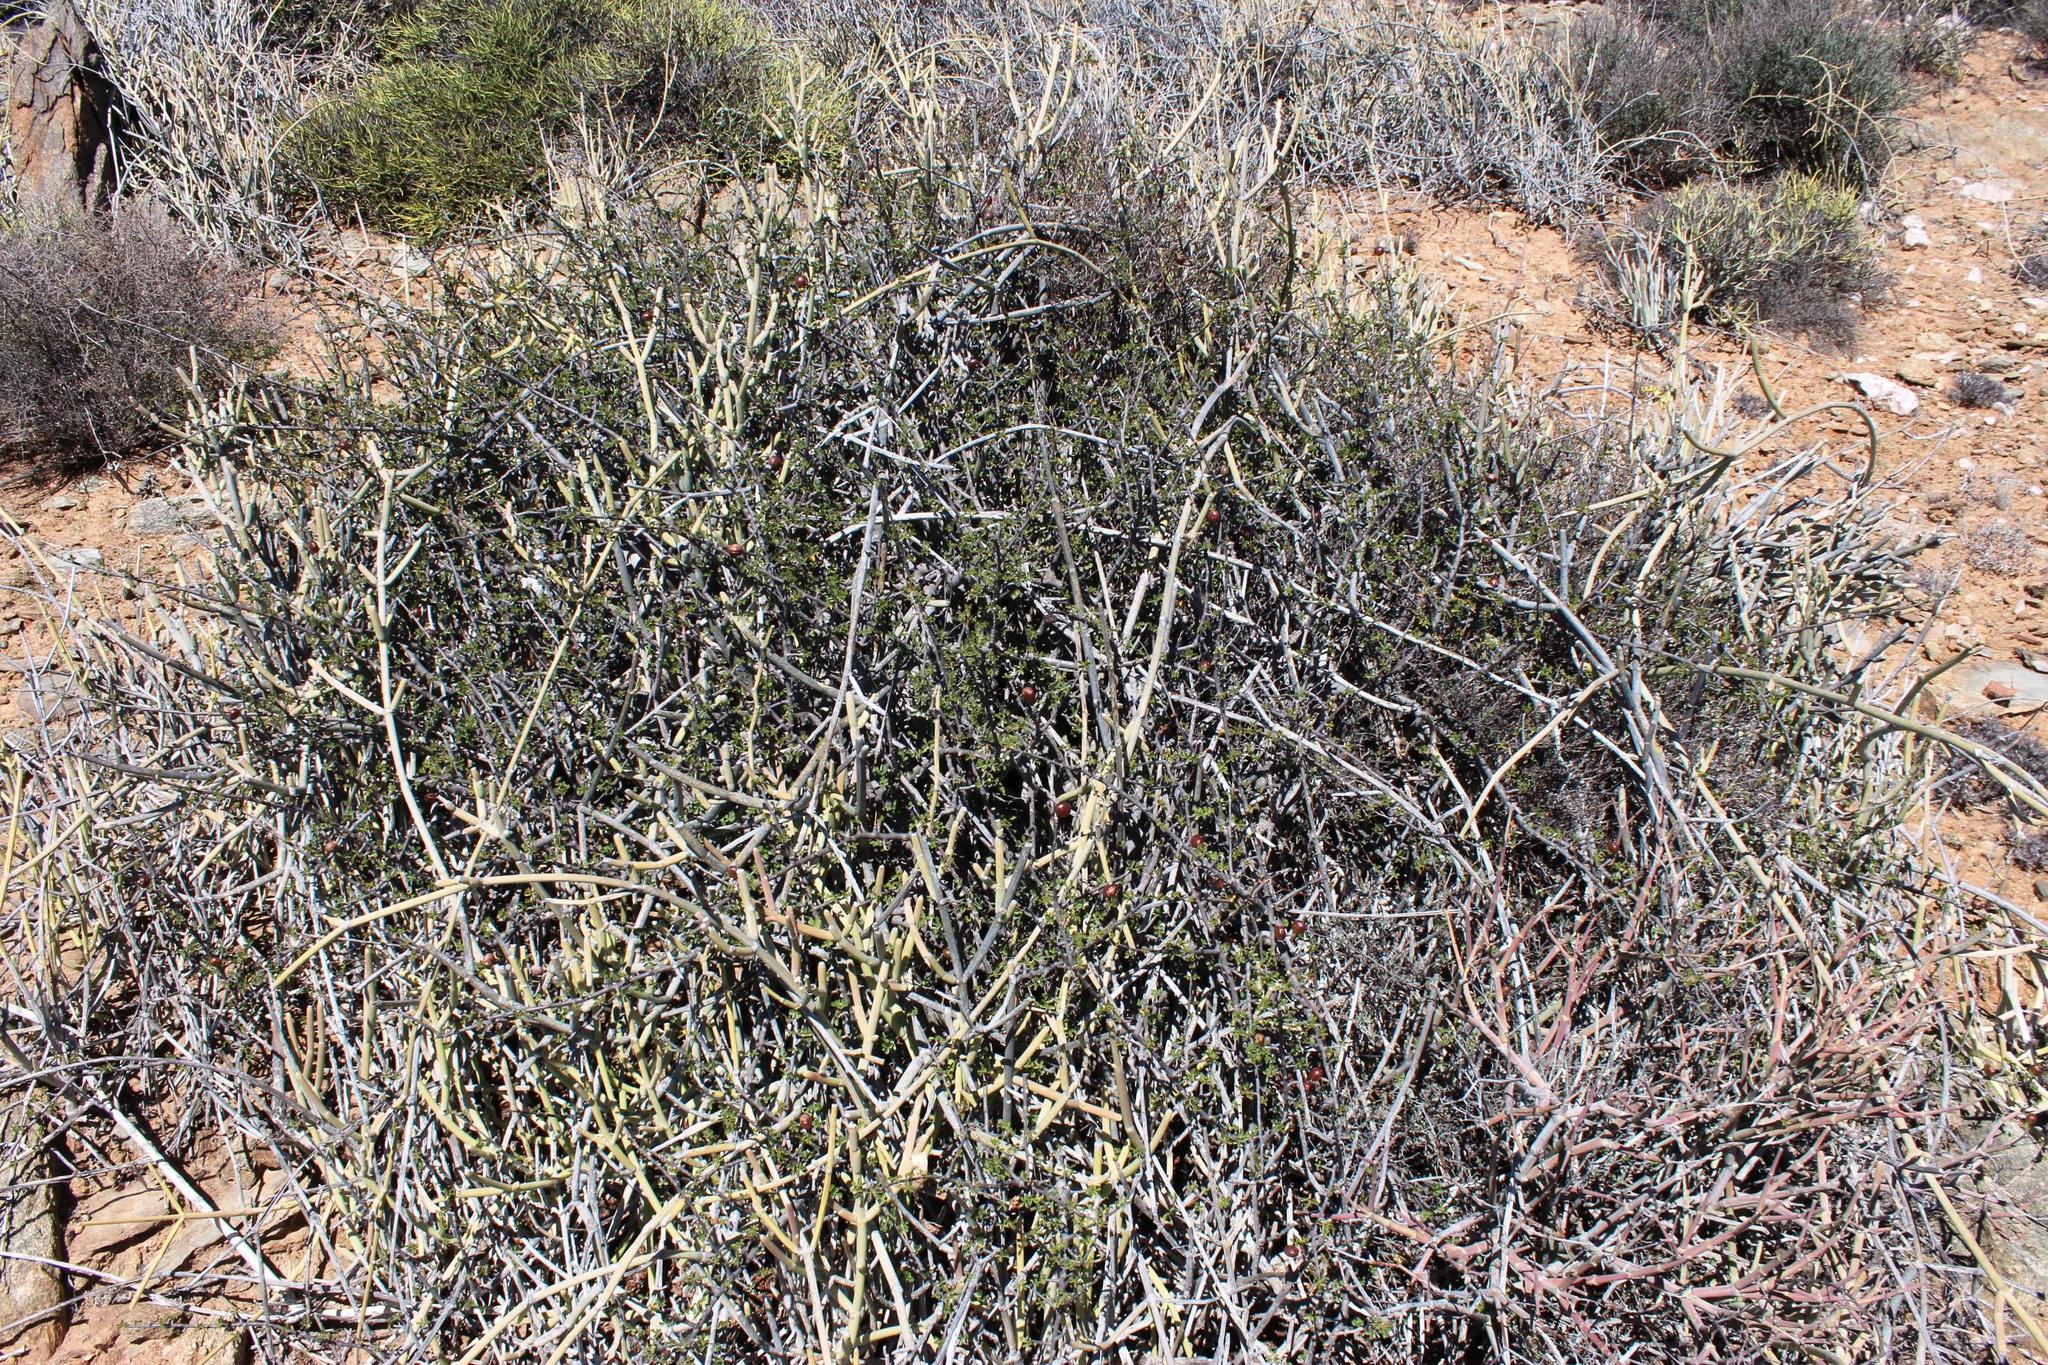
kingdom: Plantae
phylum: Tracheophyta
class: Magnoliopsida
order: Sapindales
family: Burseraceae
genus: Commiphora
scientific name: Commiphora capensis
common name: Namaqua commiphora
